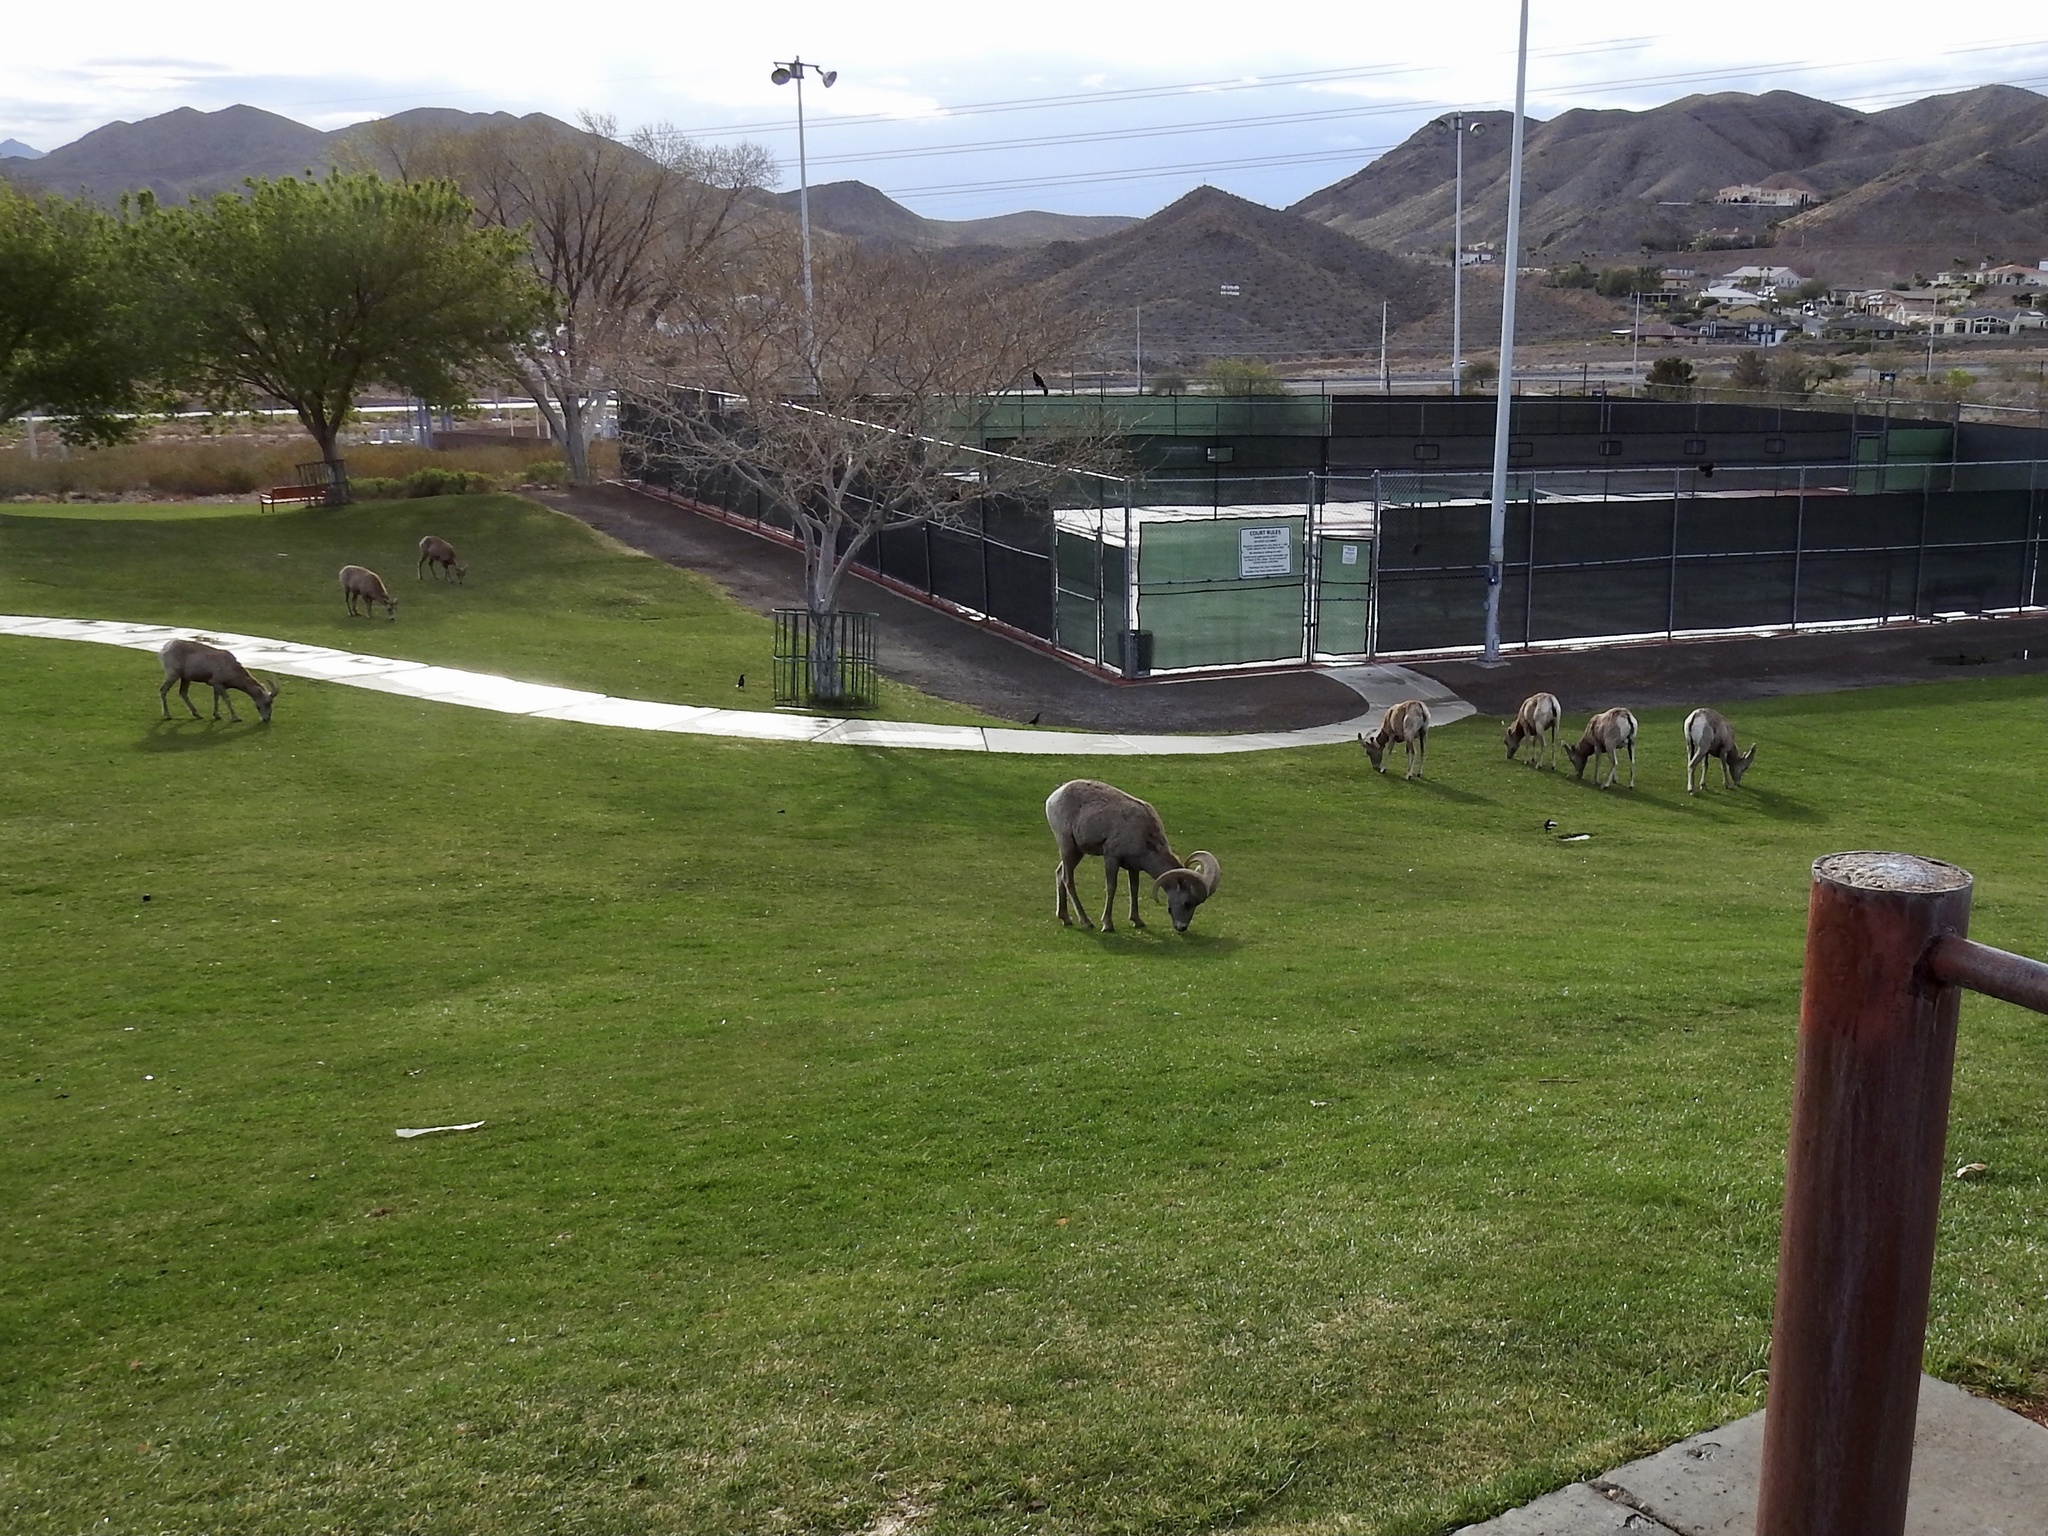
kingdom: Animalia
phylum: Chordata
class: Mammalia
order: Artiodactyla
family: Bovidae
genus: Ovis
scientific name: Ovis canadensis
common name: Bighorn sheep
